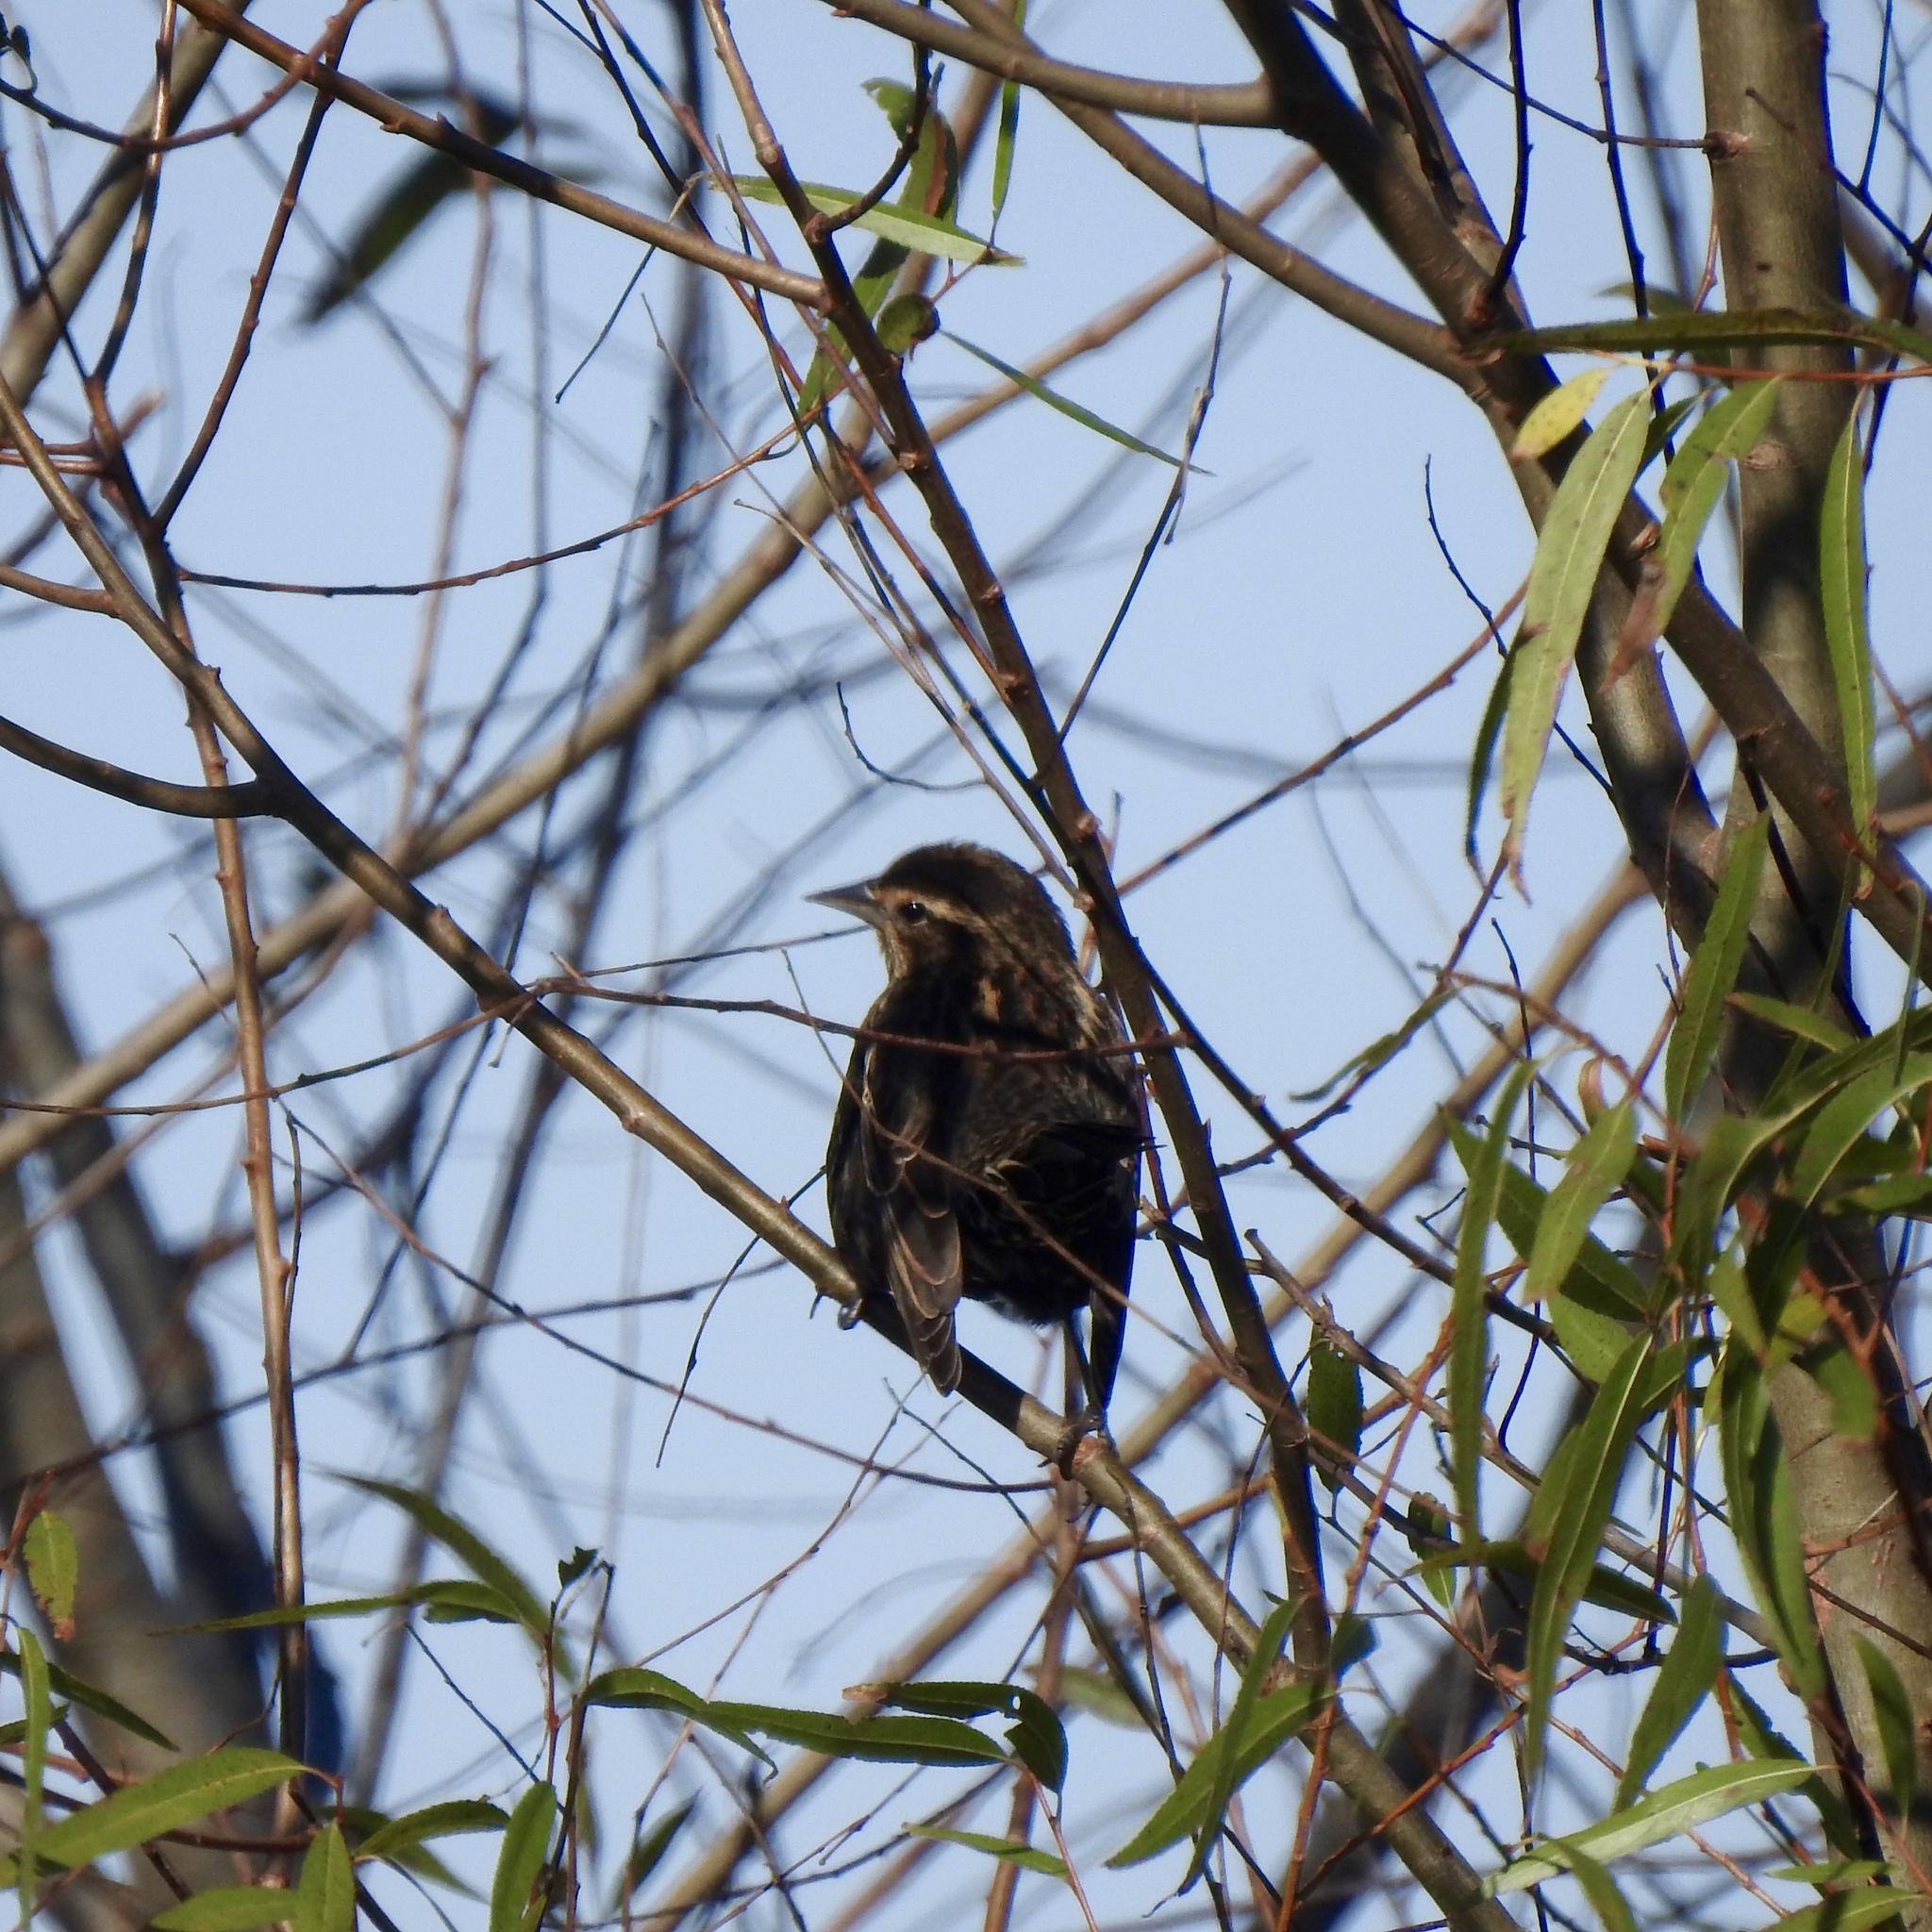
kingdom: Animalia
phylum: Chordata
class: Aves
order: Passeriformes
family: Icteridae
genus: Agelaius
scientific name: Agelaius phoeniceus
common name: Red-winged blackbird
